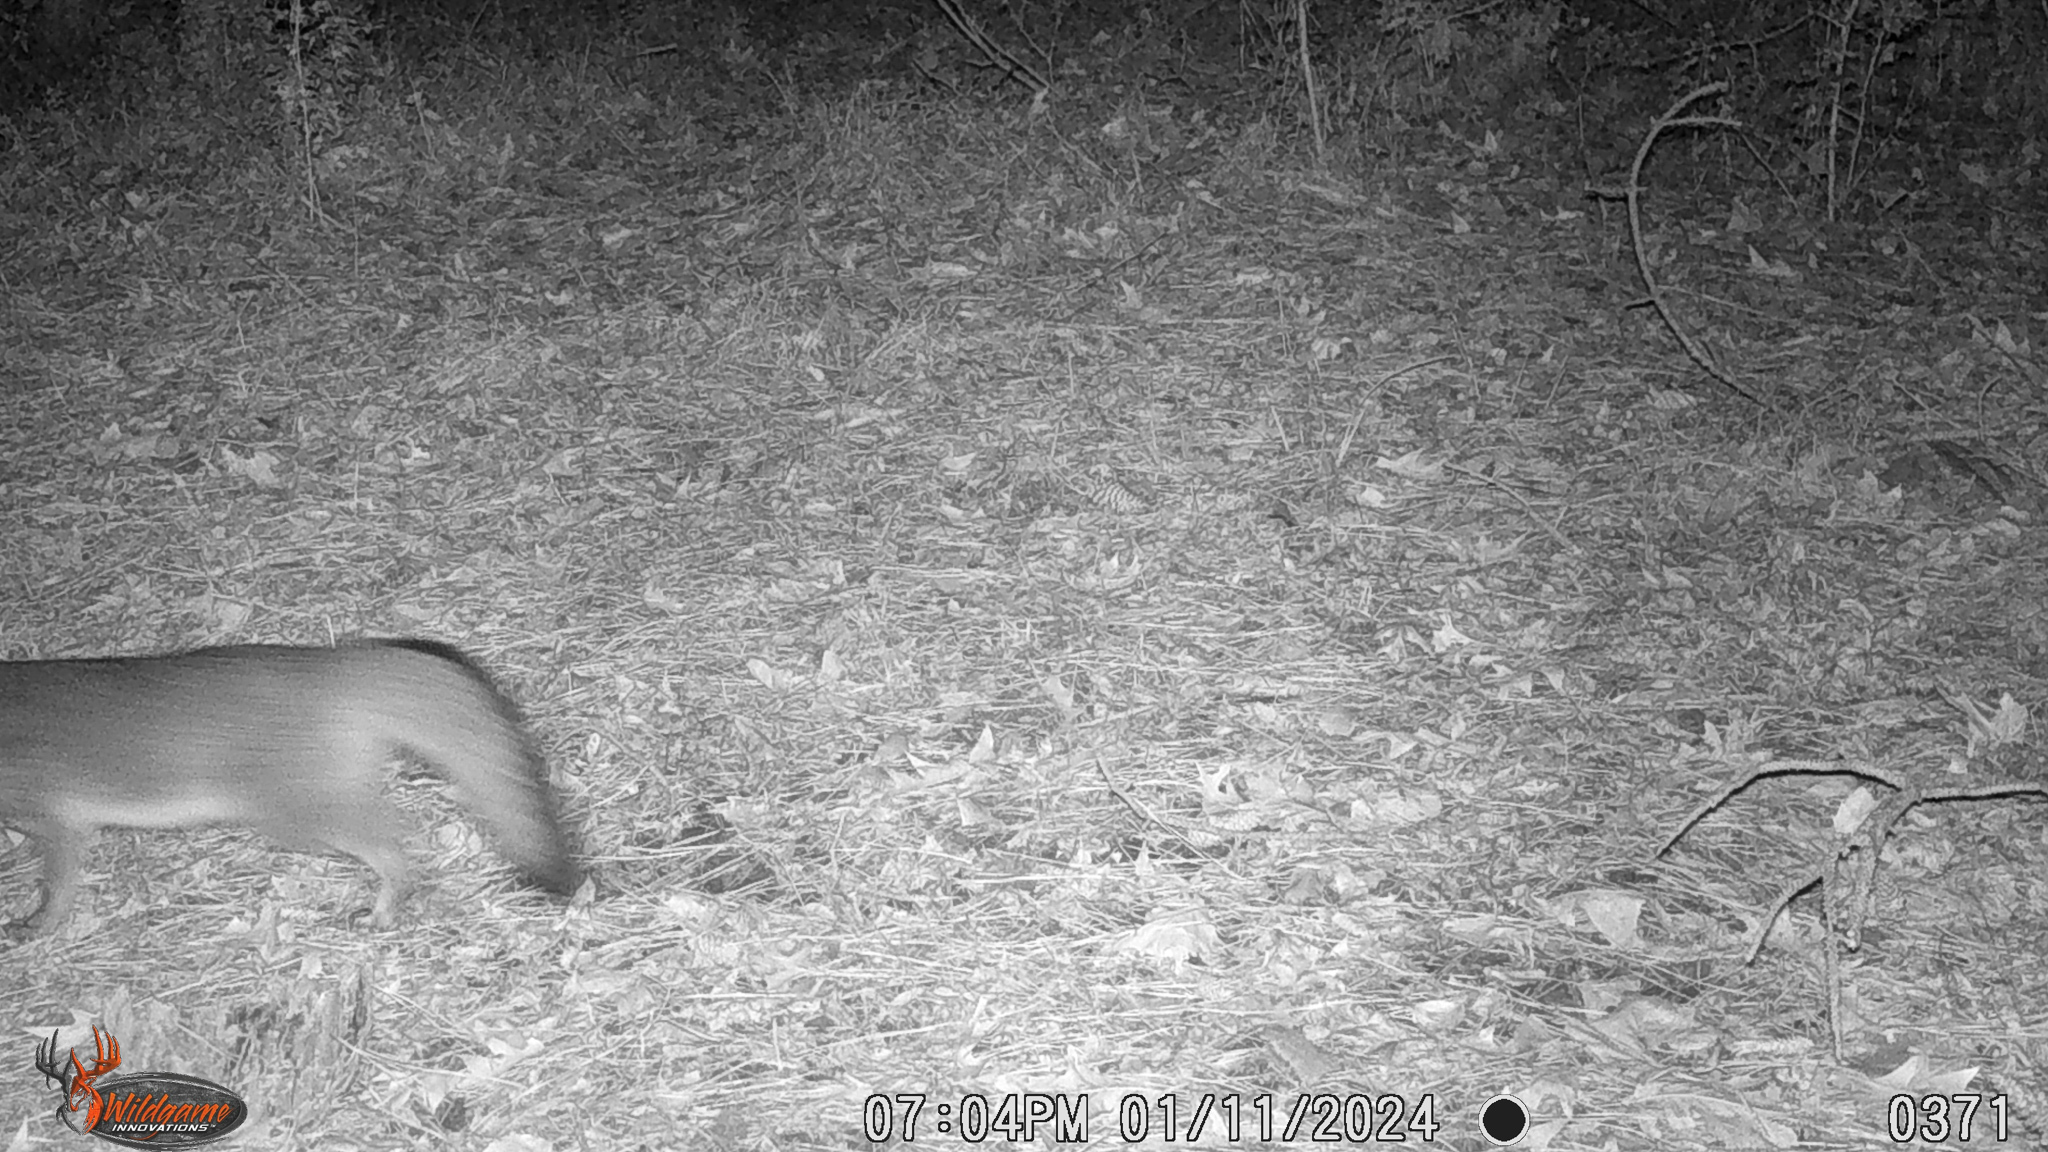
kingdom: Animalia
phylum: Chordata
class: Mammalia
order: Carnivora
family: Canidae
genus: Urocyon
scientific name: Urocyon cinereoargenteus
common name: Gray fox
